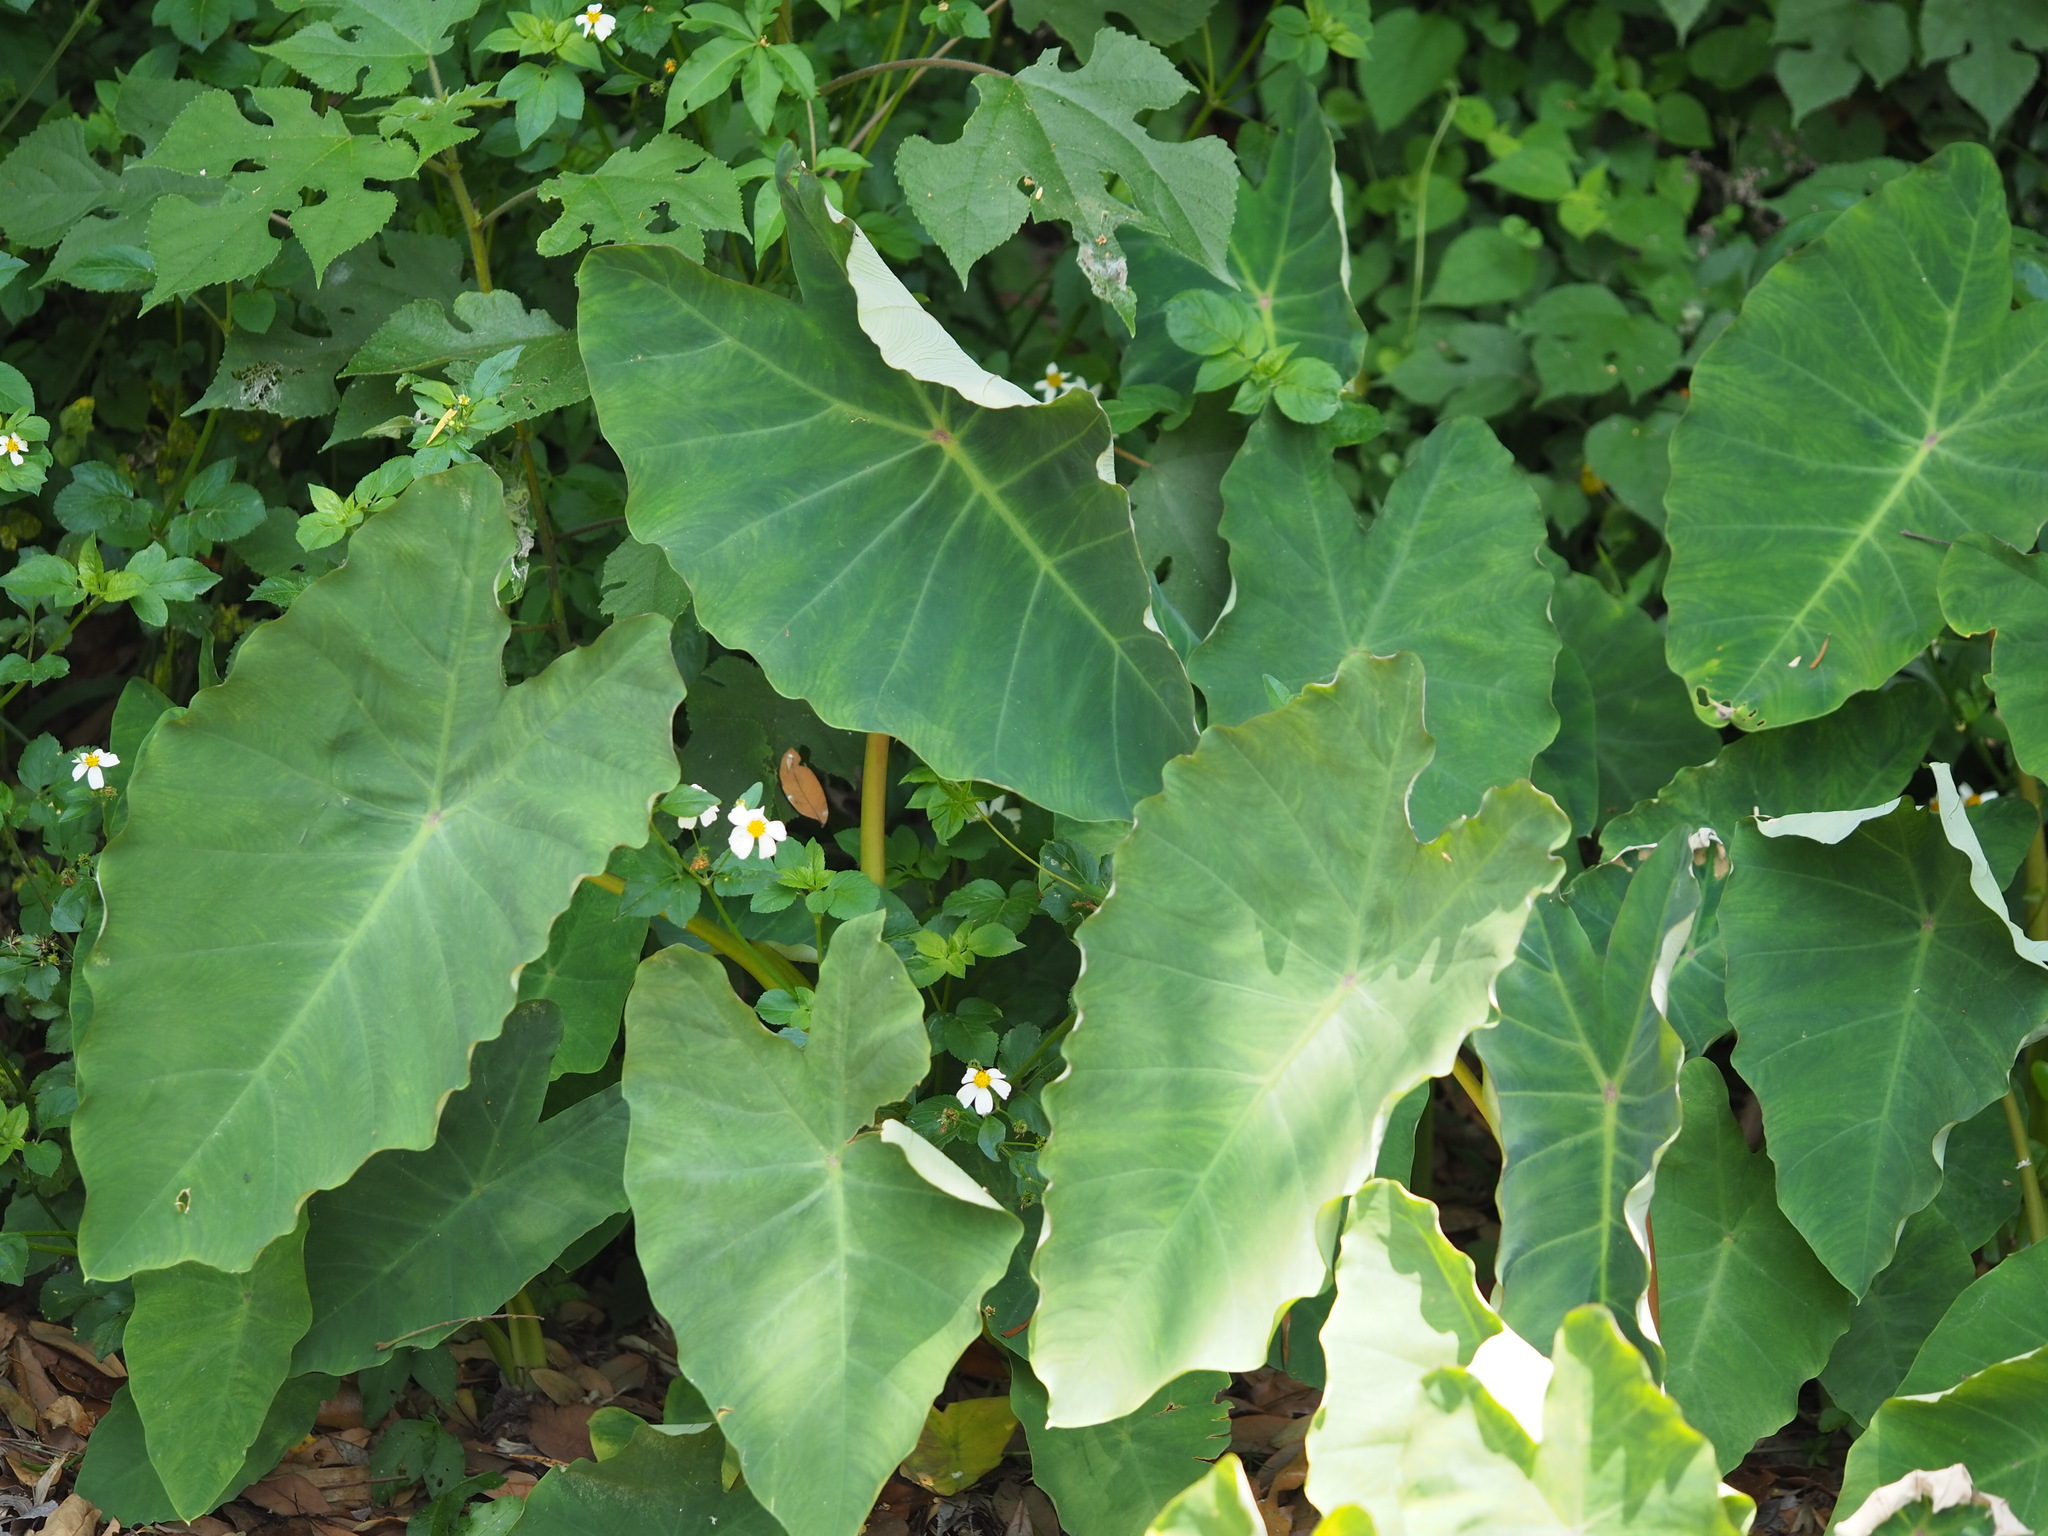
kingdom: Plantae
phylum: Tracheophyta
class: Liliopsida
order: Alismatales
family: Araceae
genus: Colocasia
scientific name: Colocasia esculenta
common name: Taro
